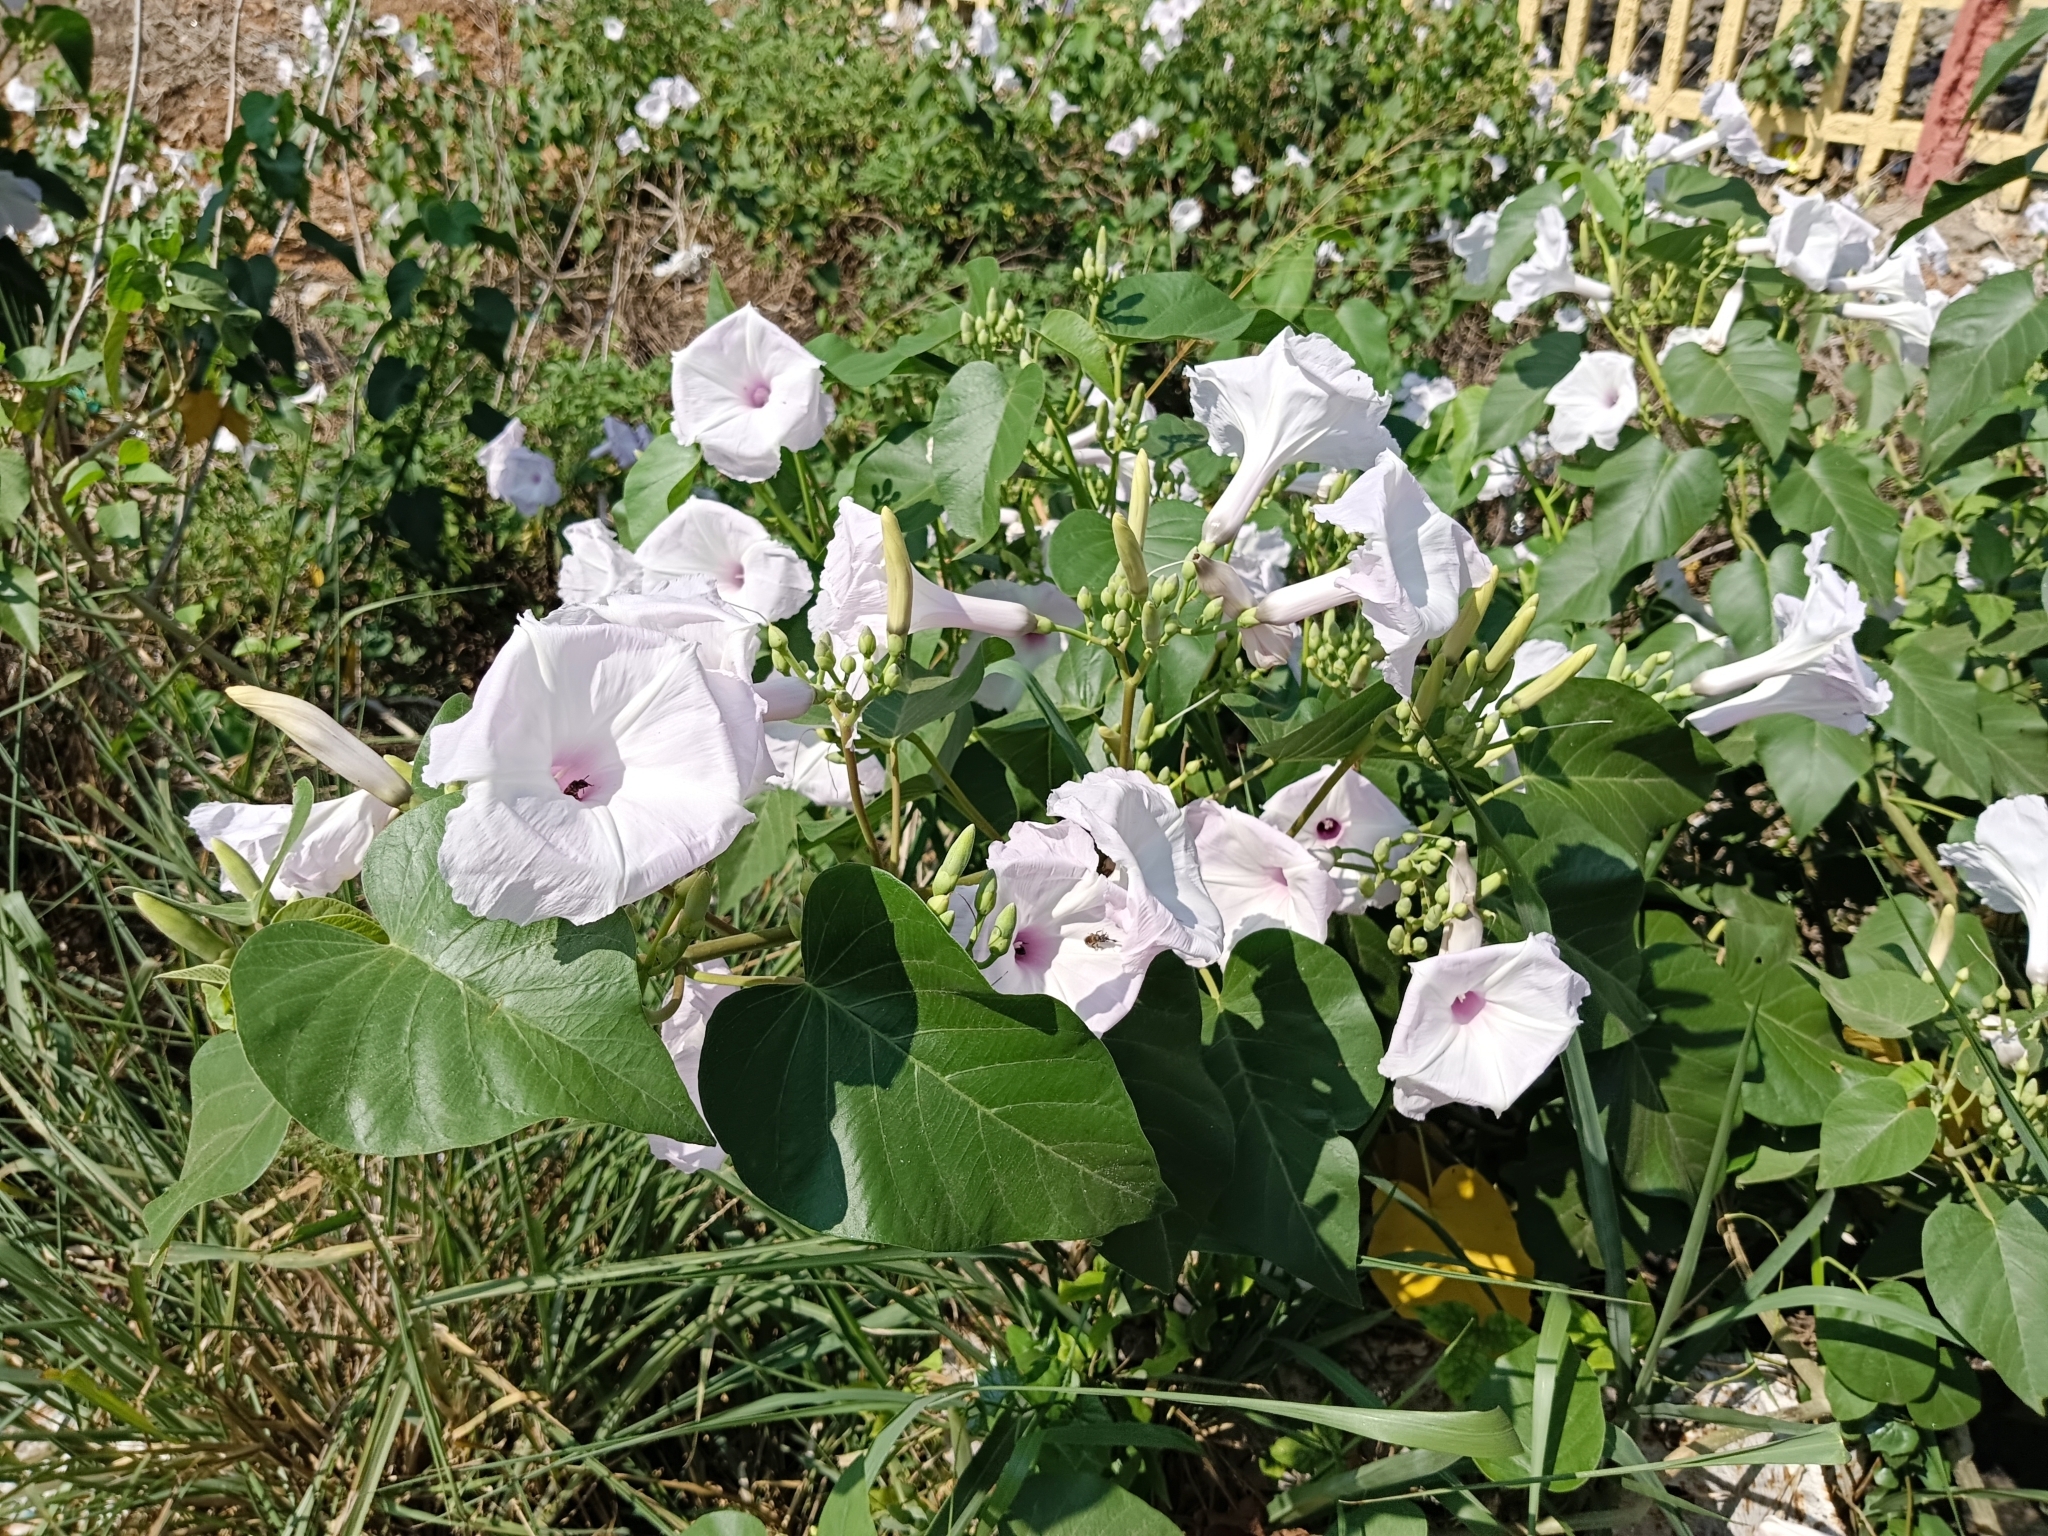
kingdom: Plantae
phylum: Tracheophyta
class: Magnoliopsida
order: Solanales
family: Convolvulaceae
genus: Ipomoea
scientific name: Ipomoea carnea
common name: Morning-glory
